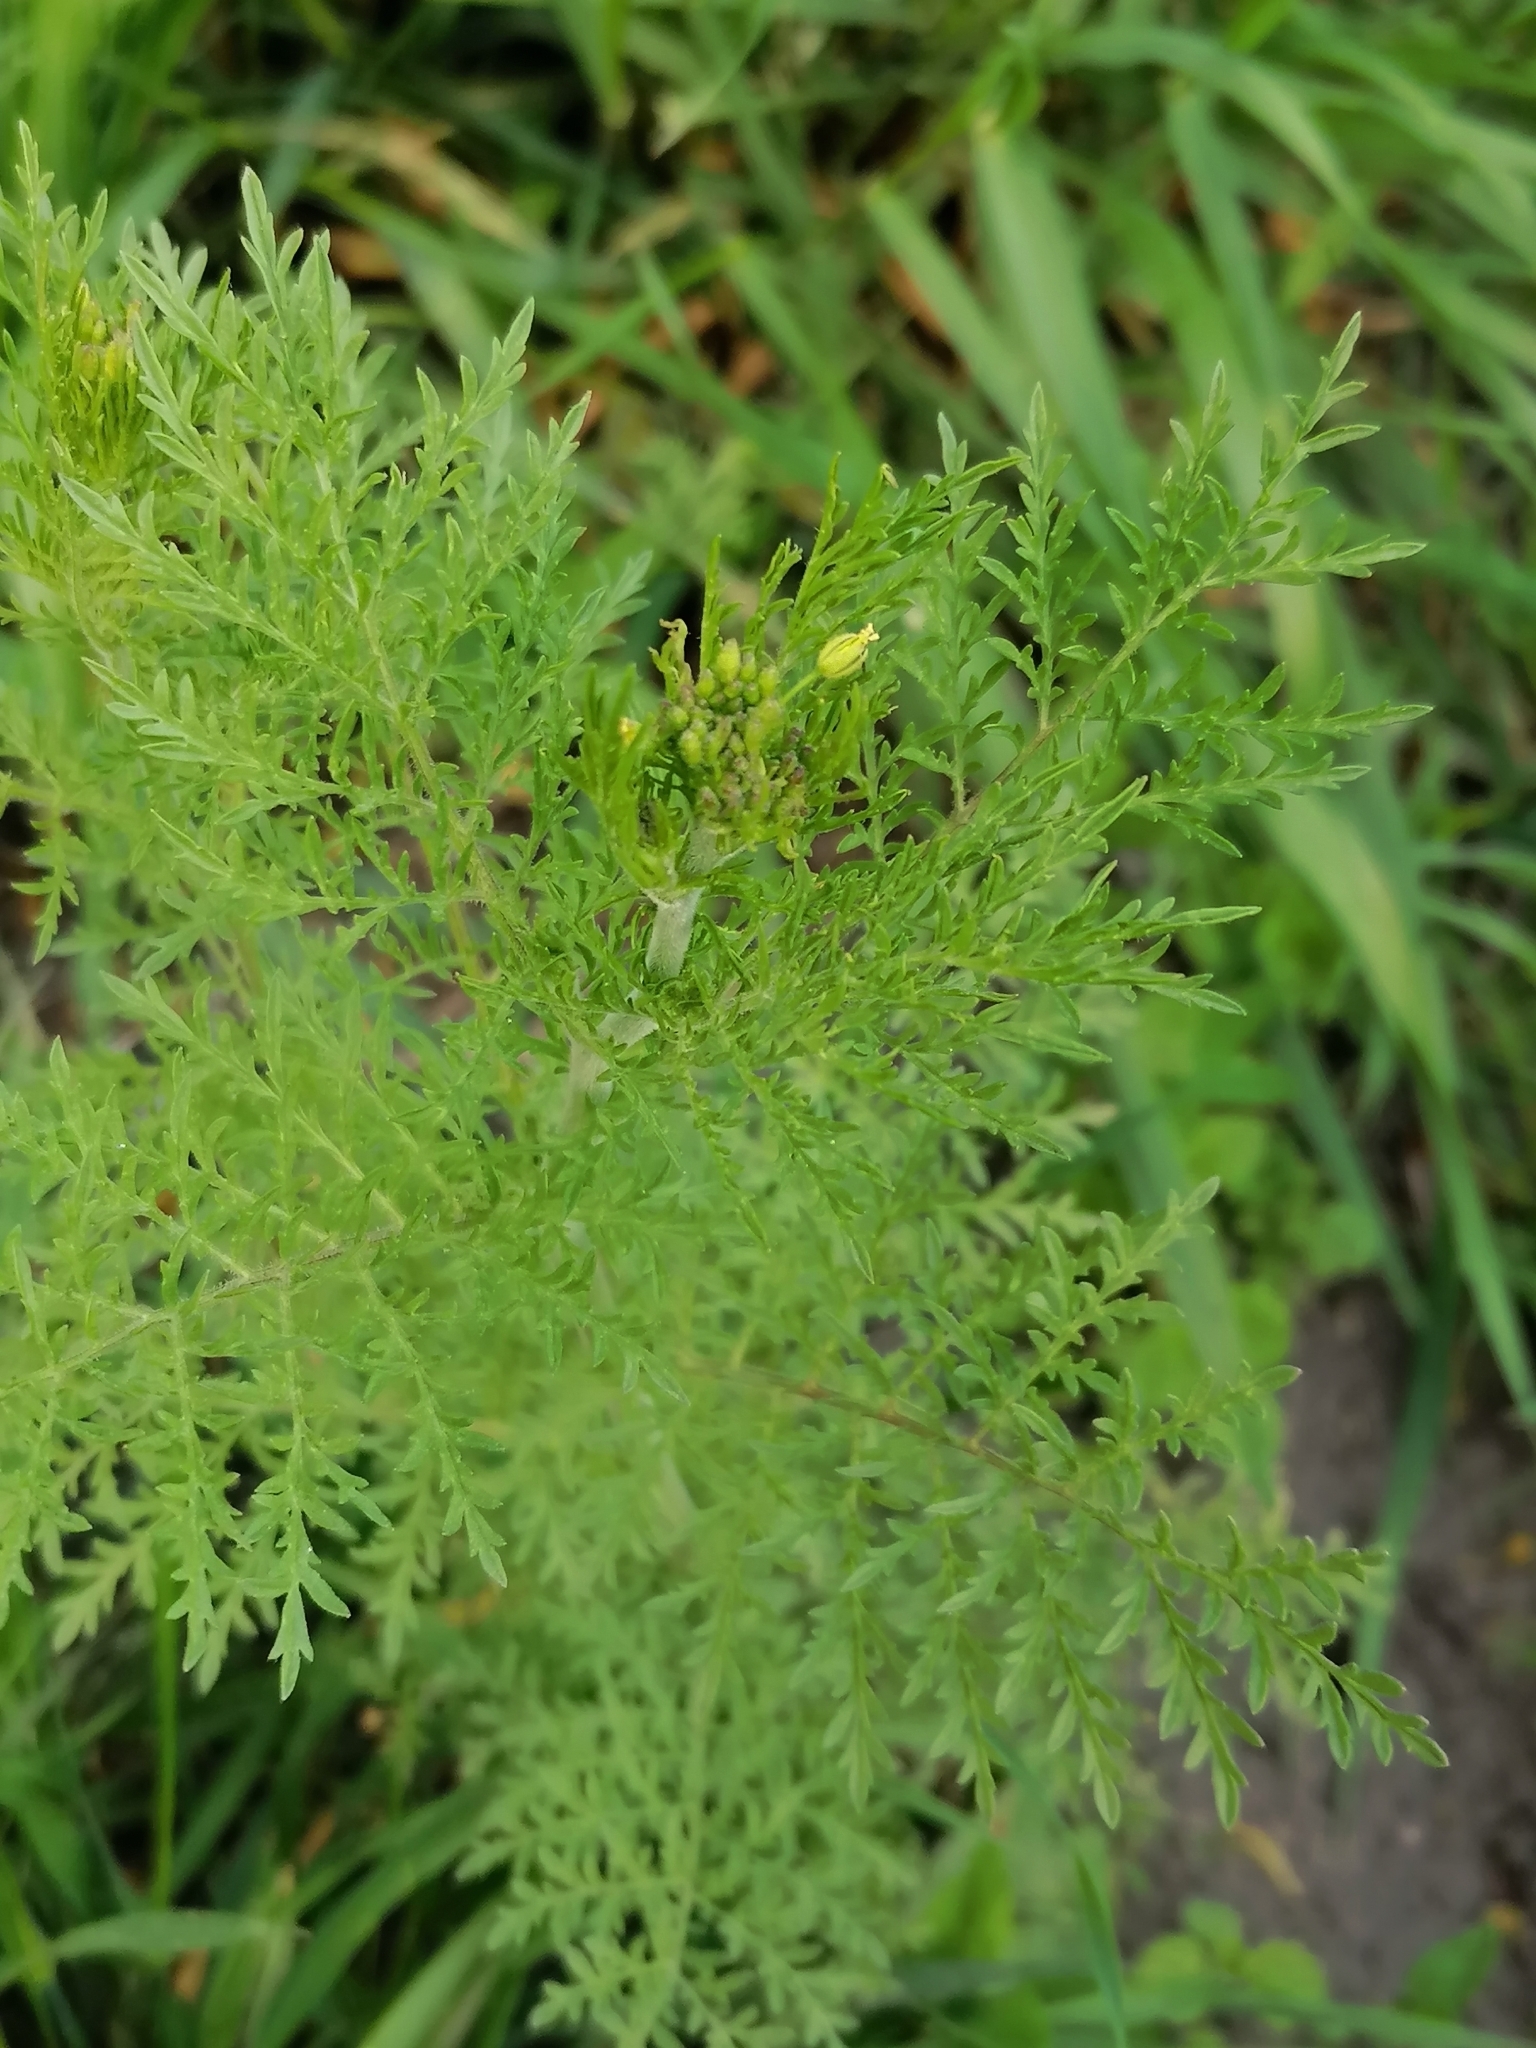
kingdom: Plantae
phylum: Tracheophyta
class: Magnoliopsida
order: Brassicales
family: Brassicaceae
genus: Descurainia
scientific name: Descurainia sophia
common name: Flixweed
